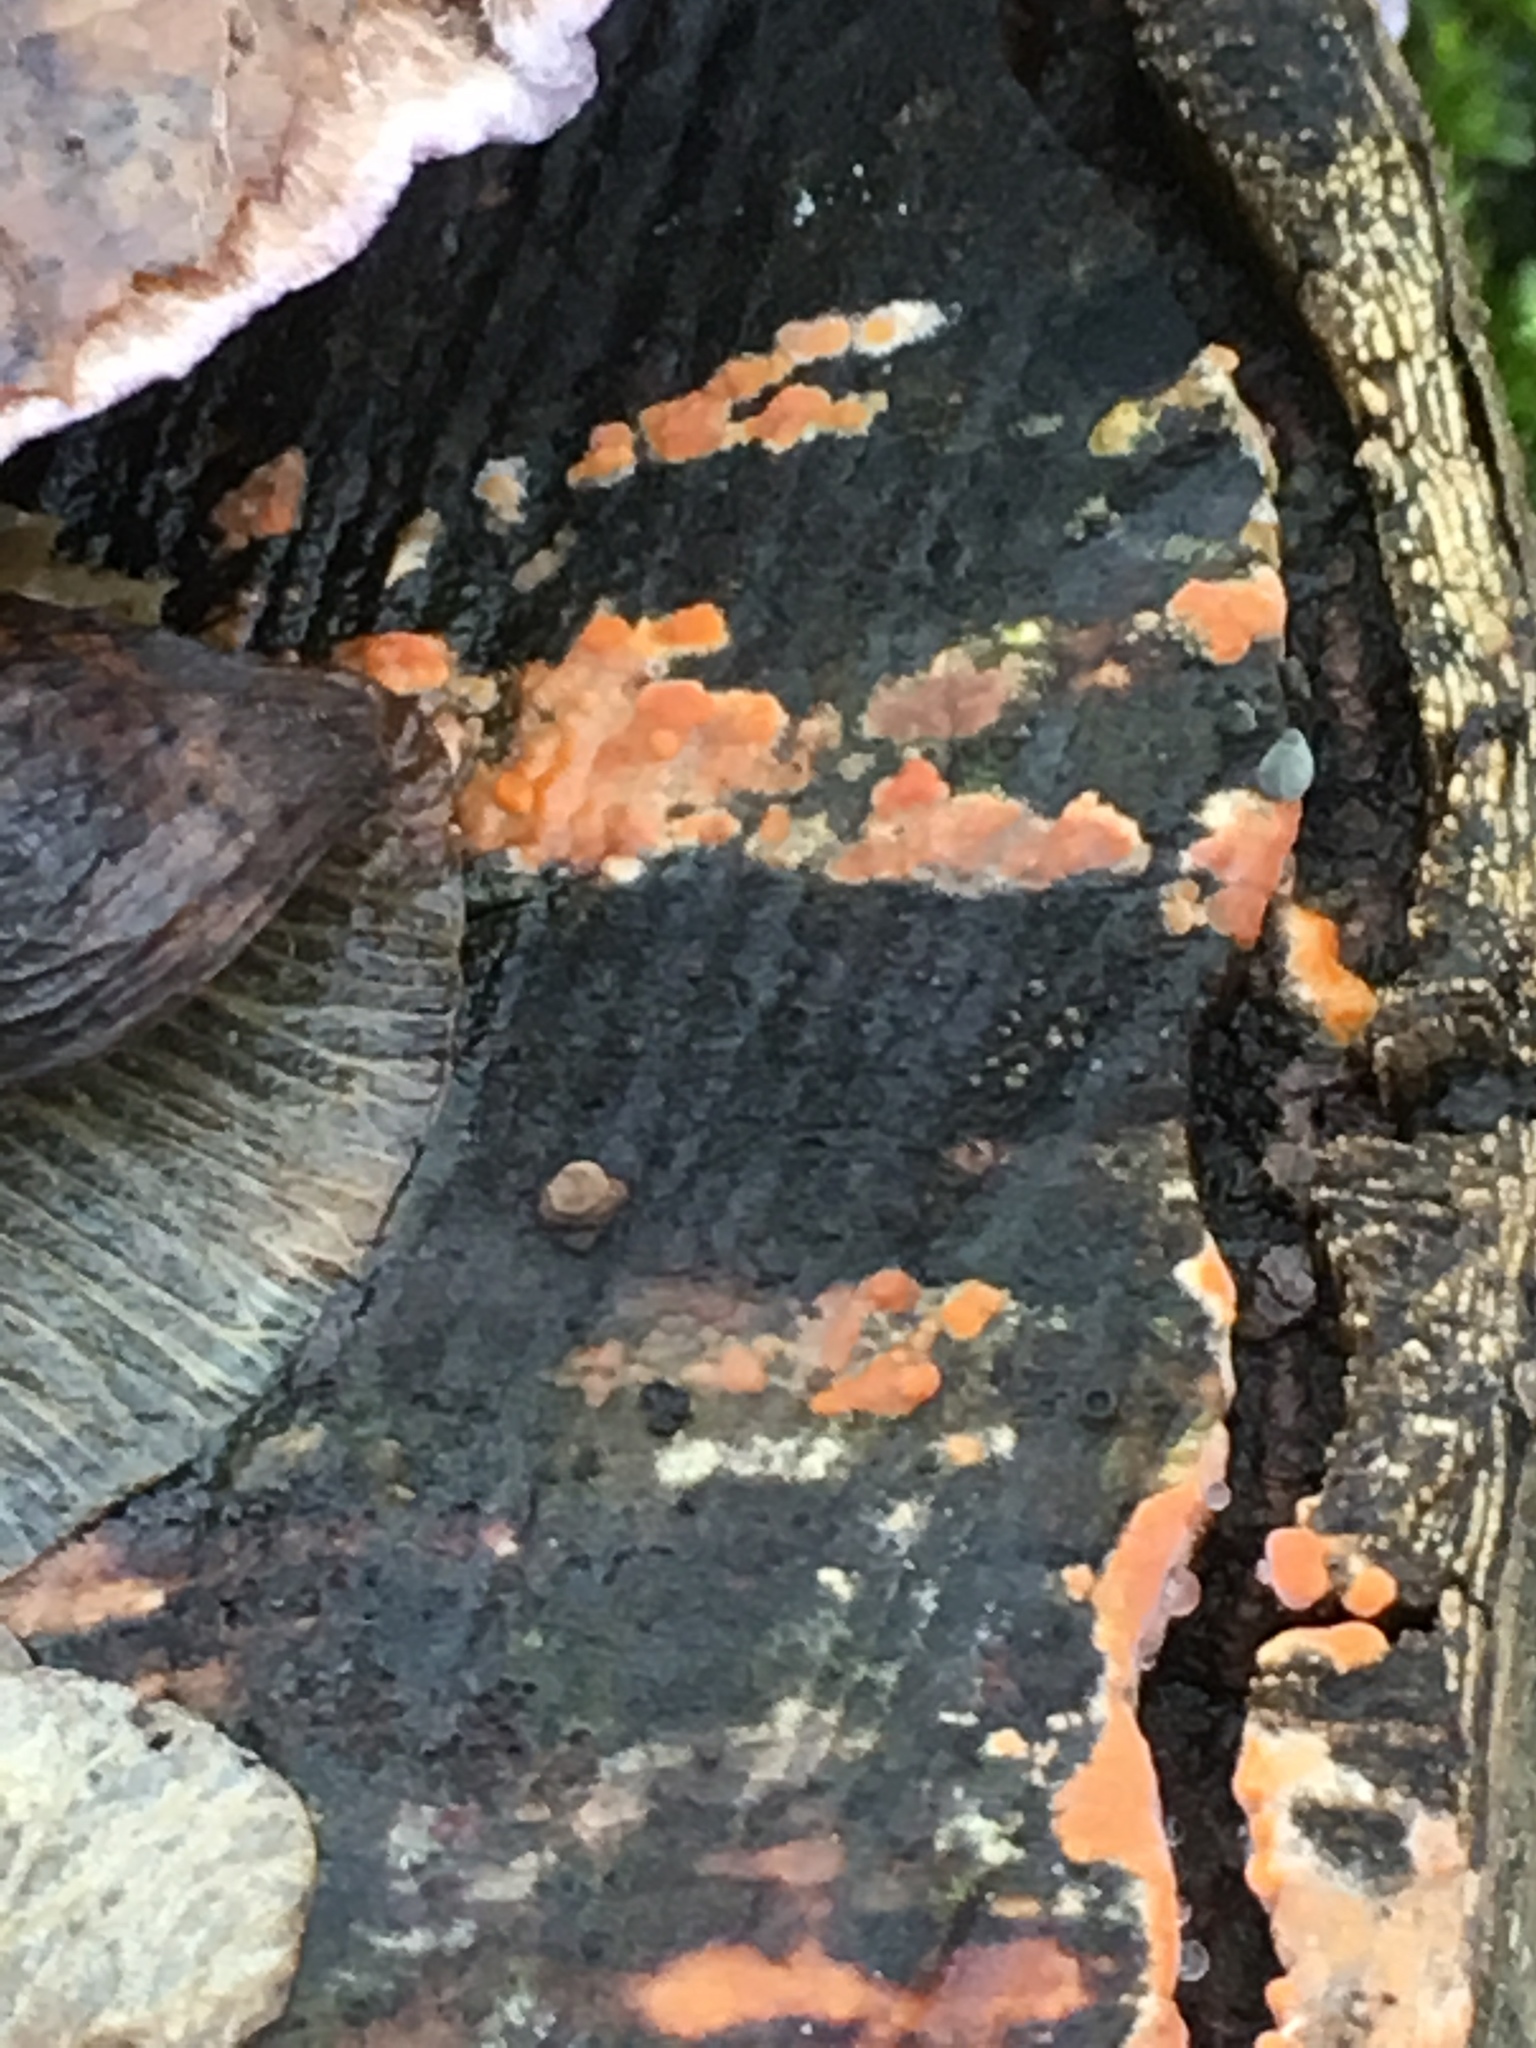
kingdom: Fungi
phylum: Basidiomycota
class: Agaricomycetes
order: Polyporales
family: Meruliaceae
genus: Phlebia
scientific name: Phlebia radiata
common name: Wrinkled crust
